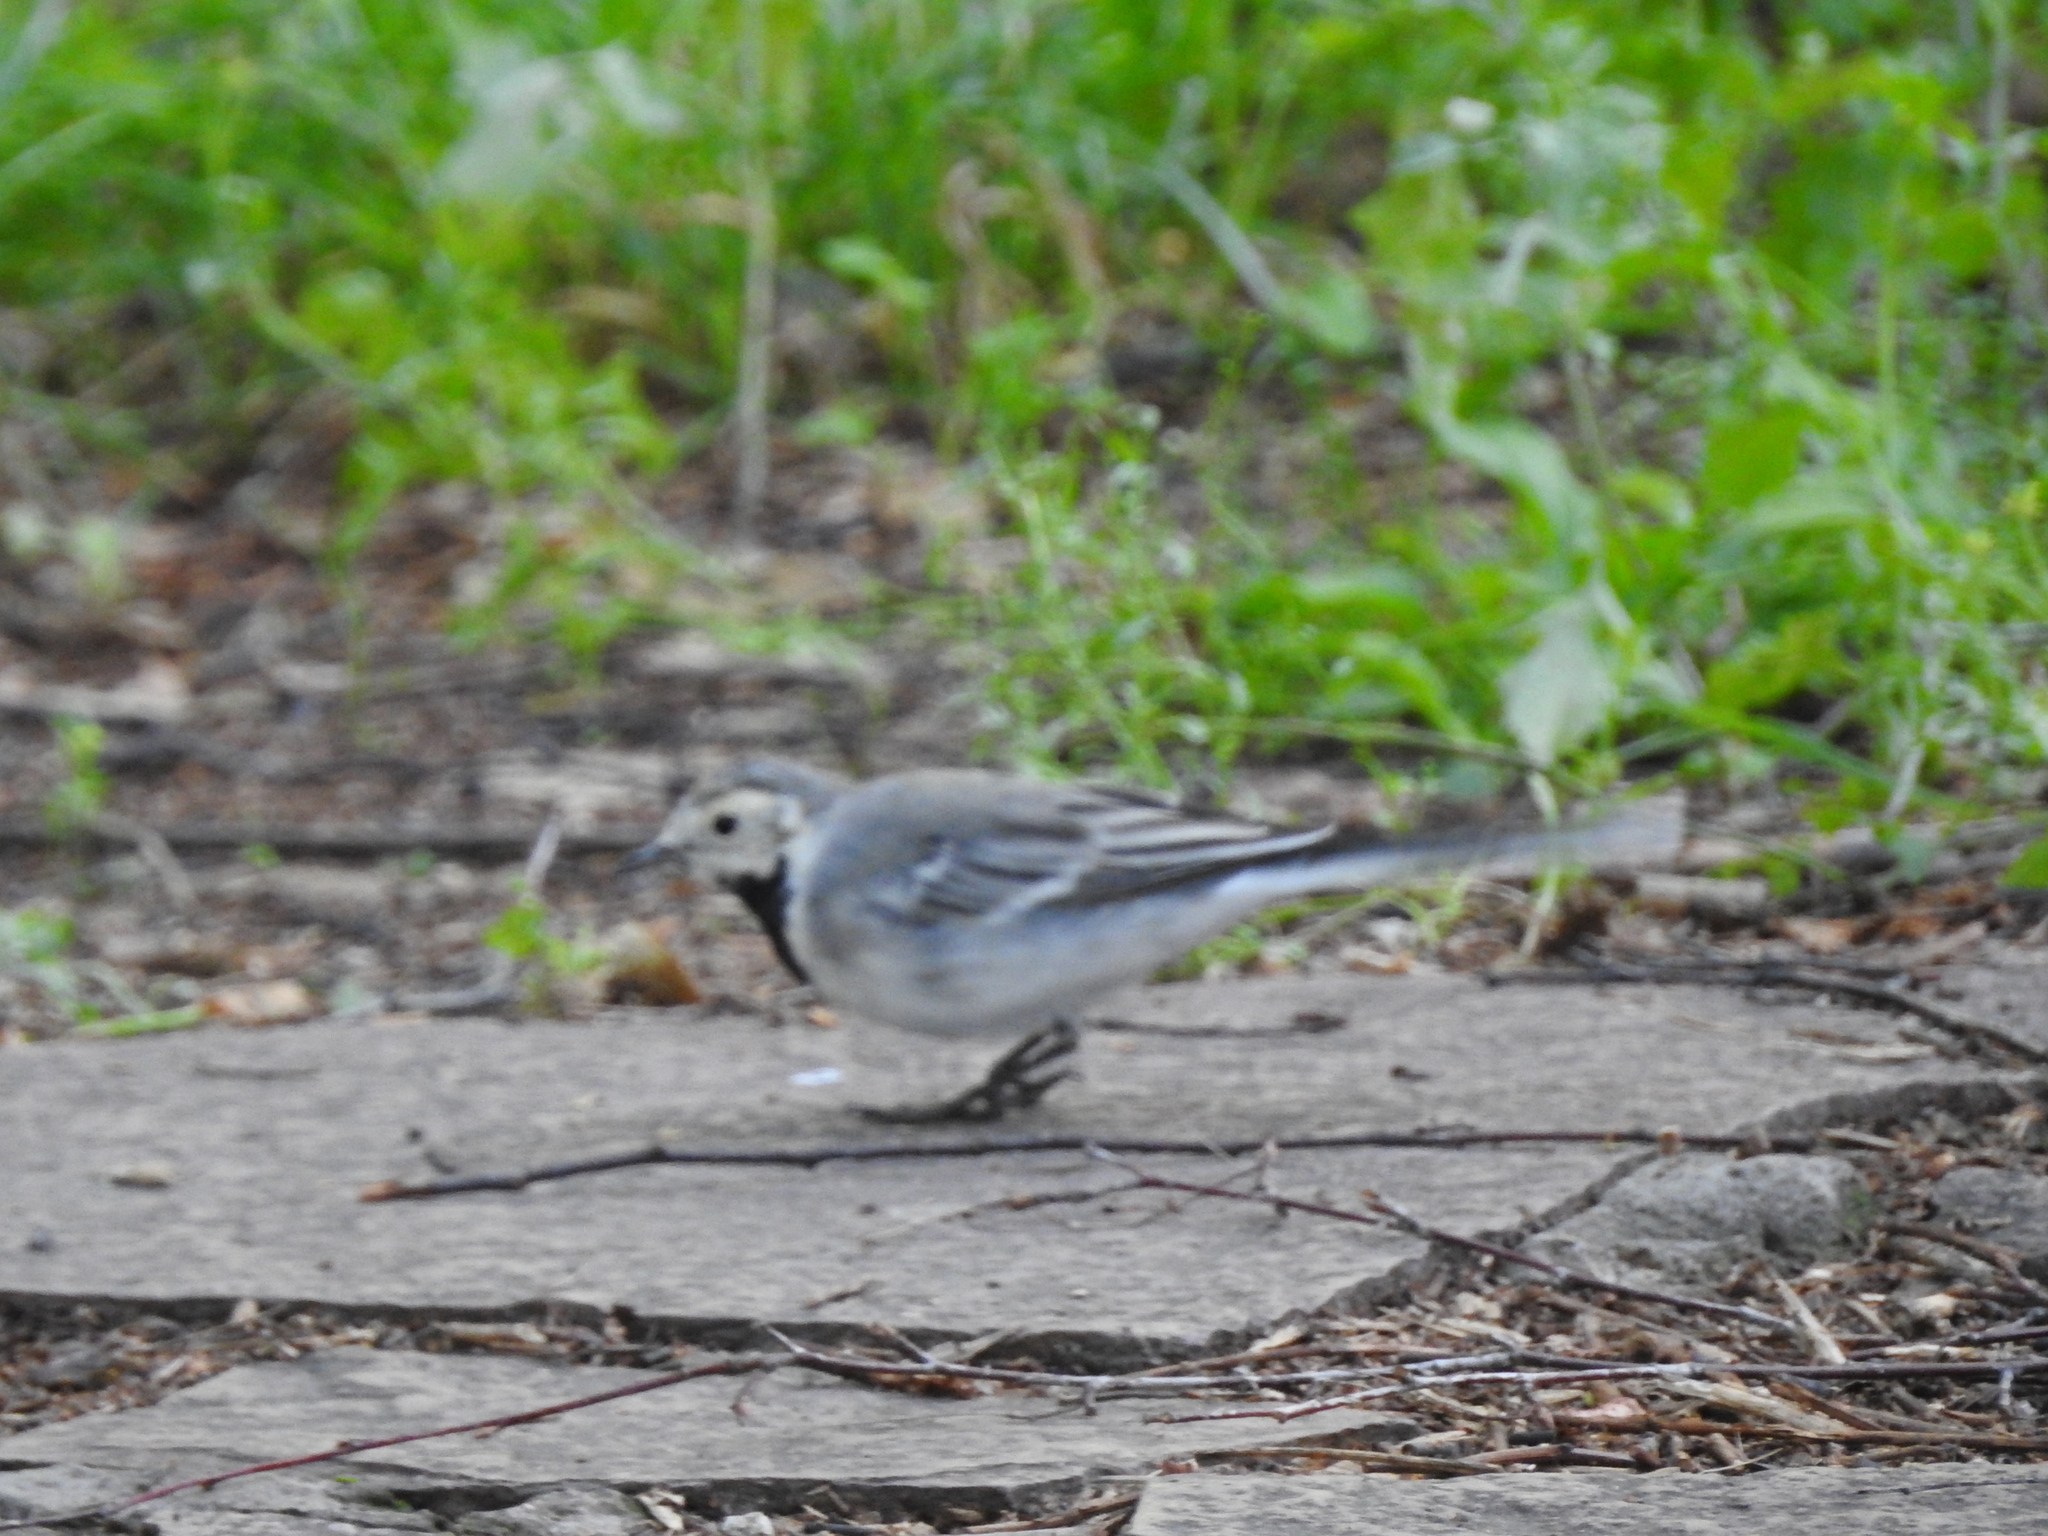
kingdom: Animalia
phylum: Chordata
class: Aves
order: Passeriformes
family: Motacillidae
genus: Motacilla
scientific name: Motacilla alba
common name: White wagtail
